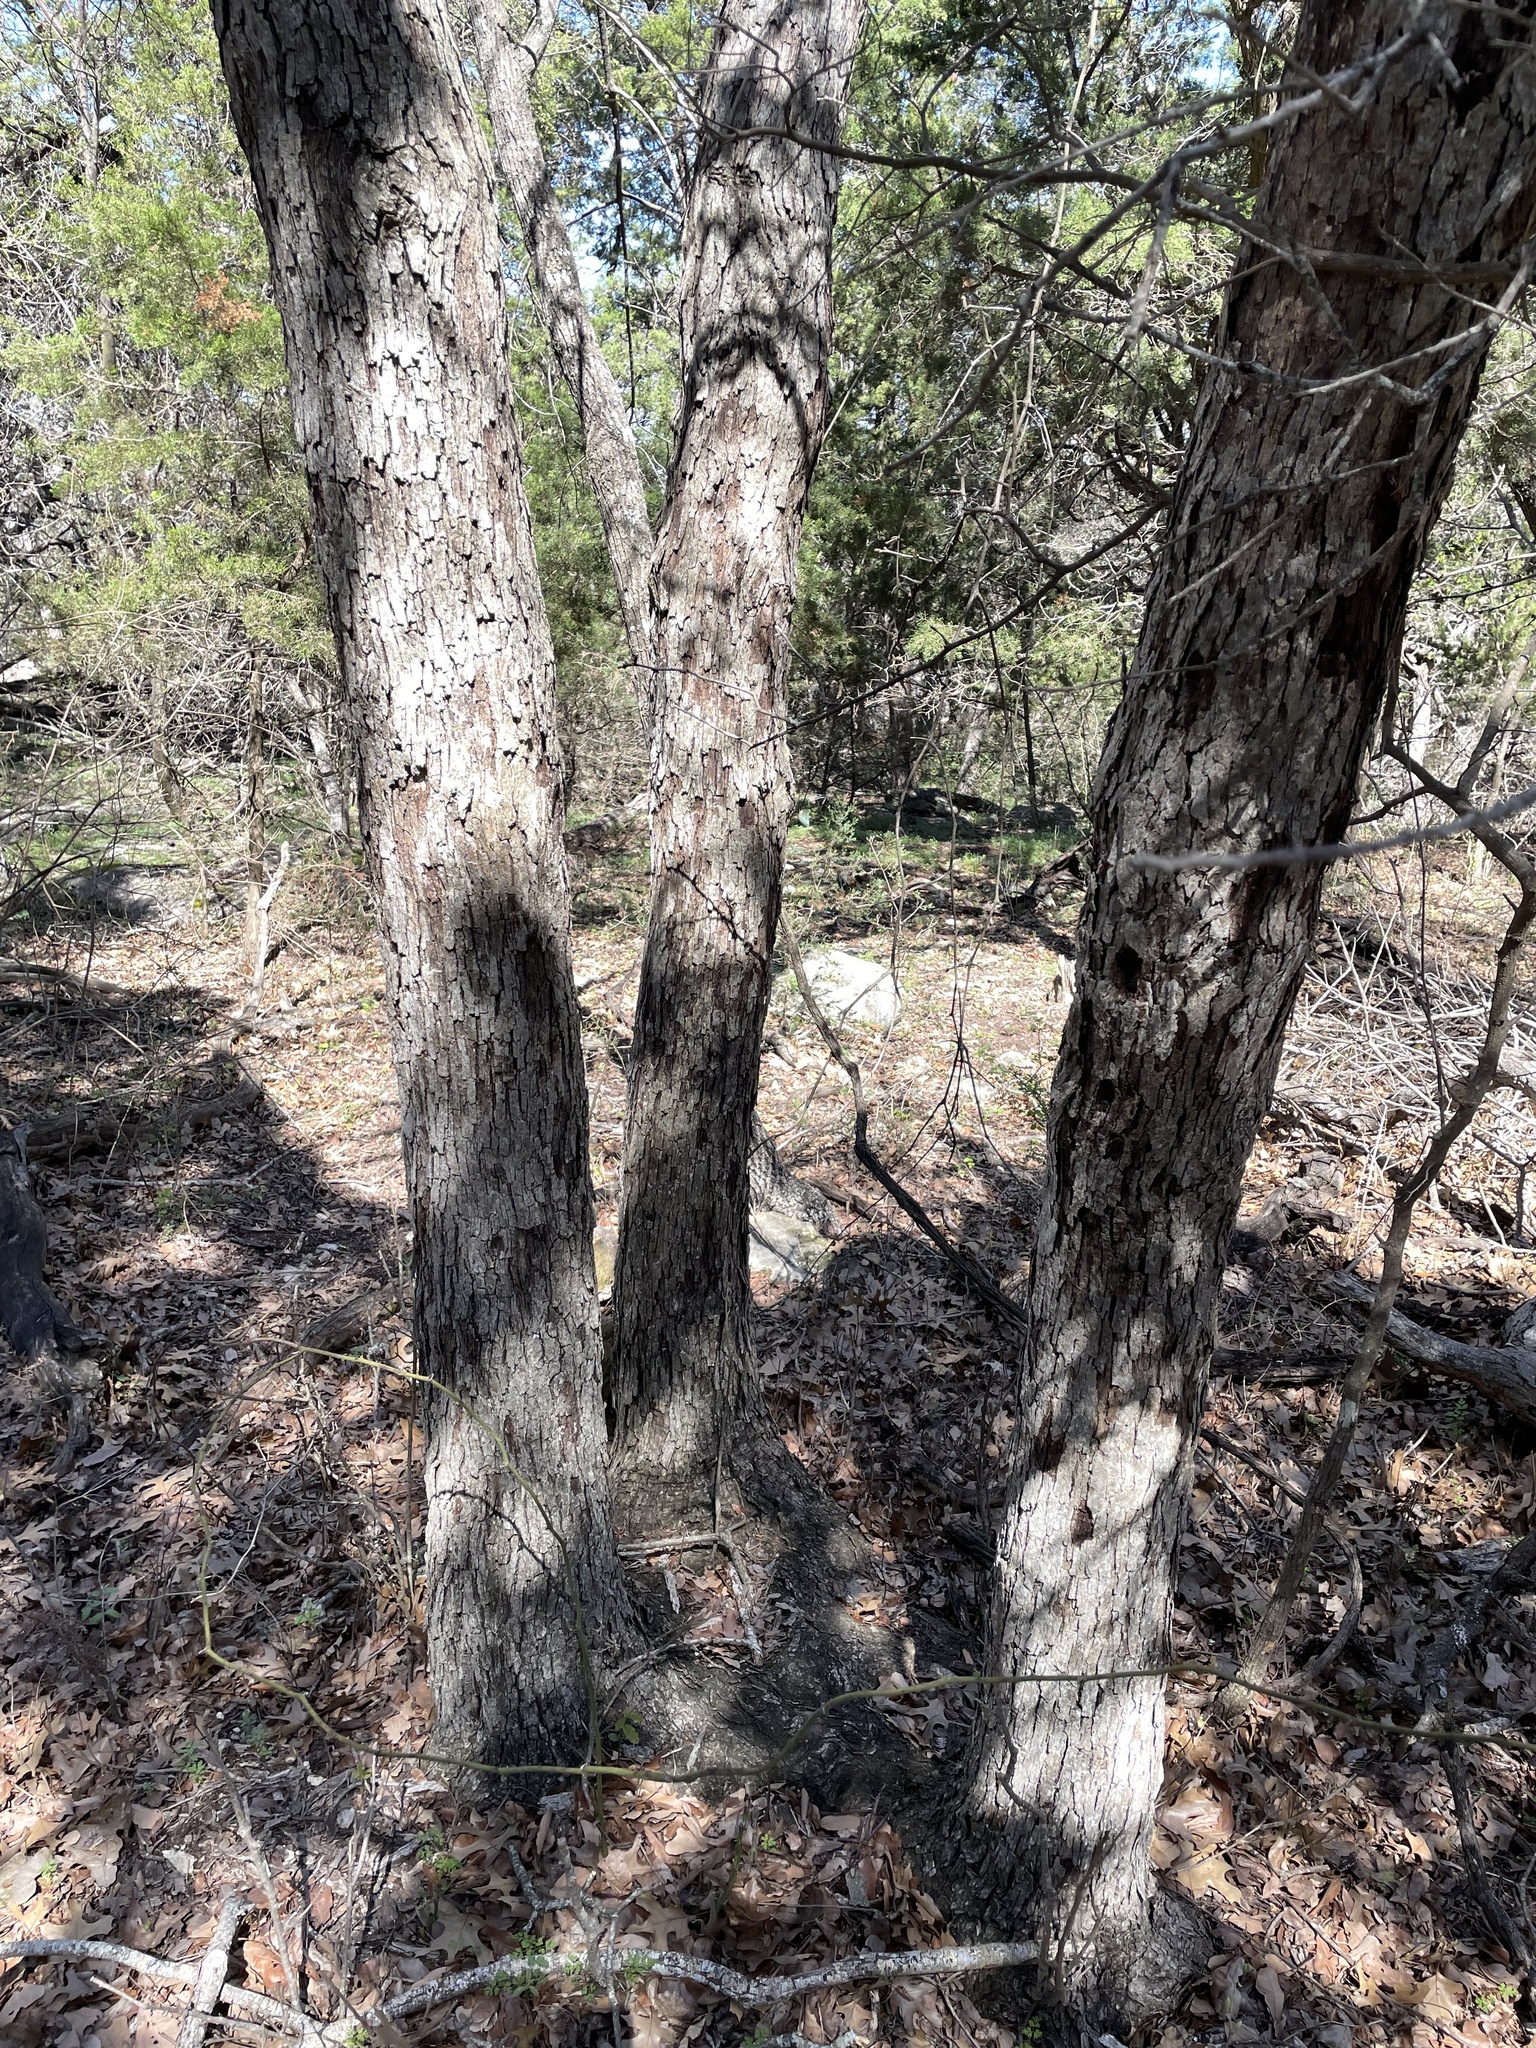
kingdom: Plantae
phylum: Tracheophyta
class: Magnoliopsida
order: Fagales
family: Fagaceae
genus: Quercus
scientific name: Quercus sinuata
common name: Durand oak
